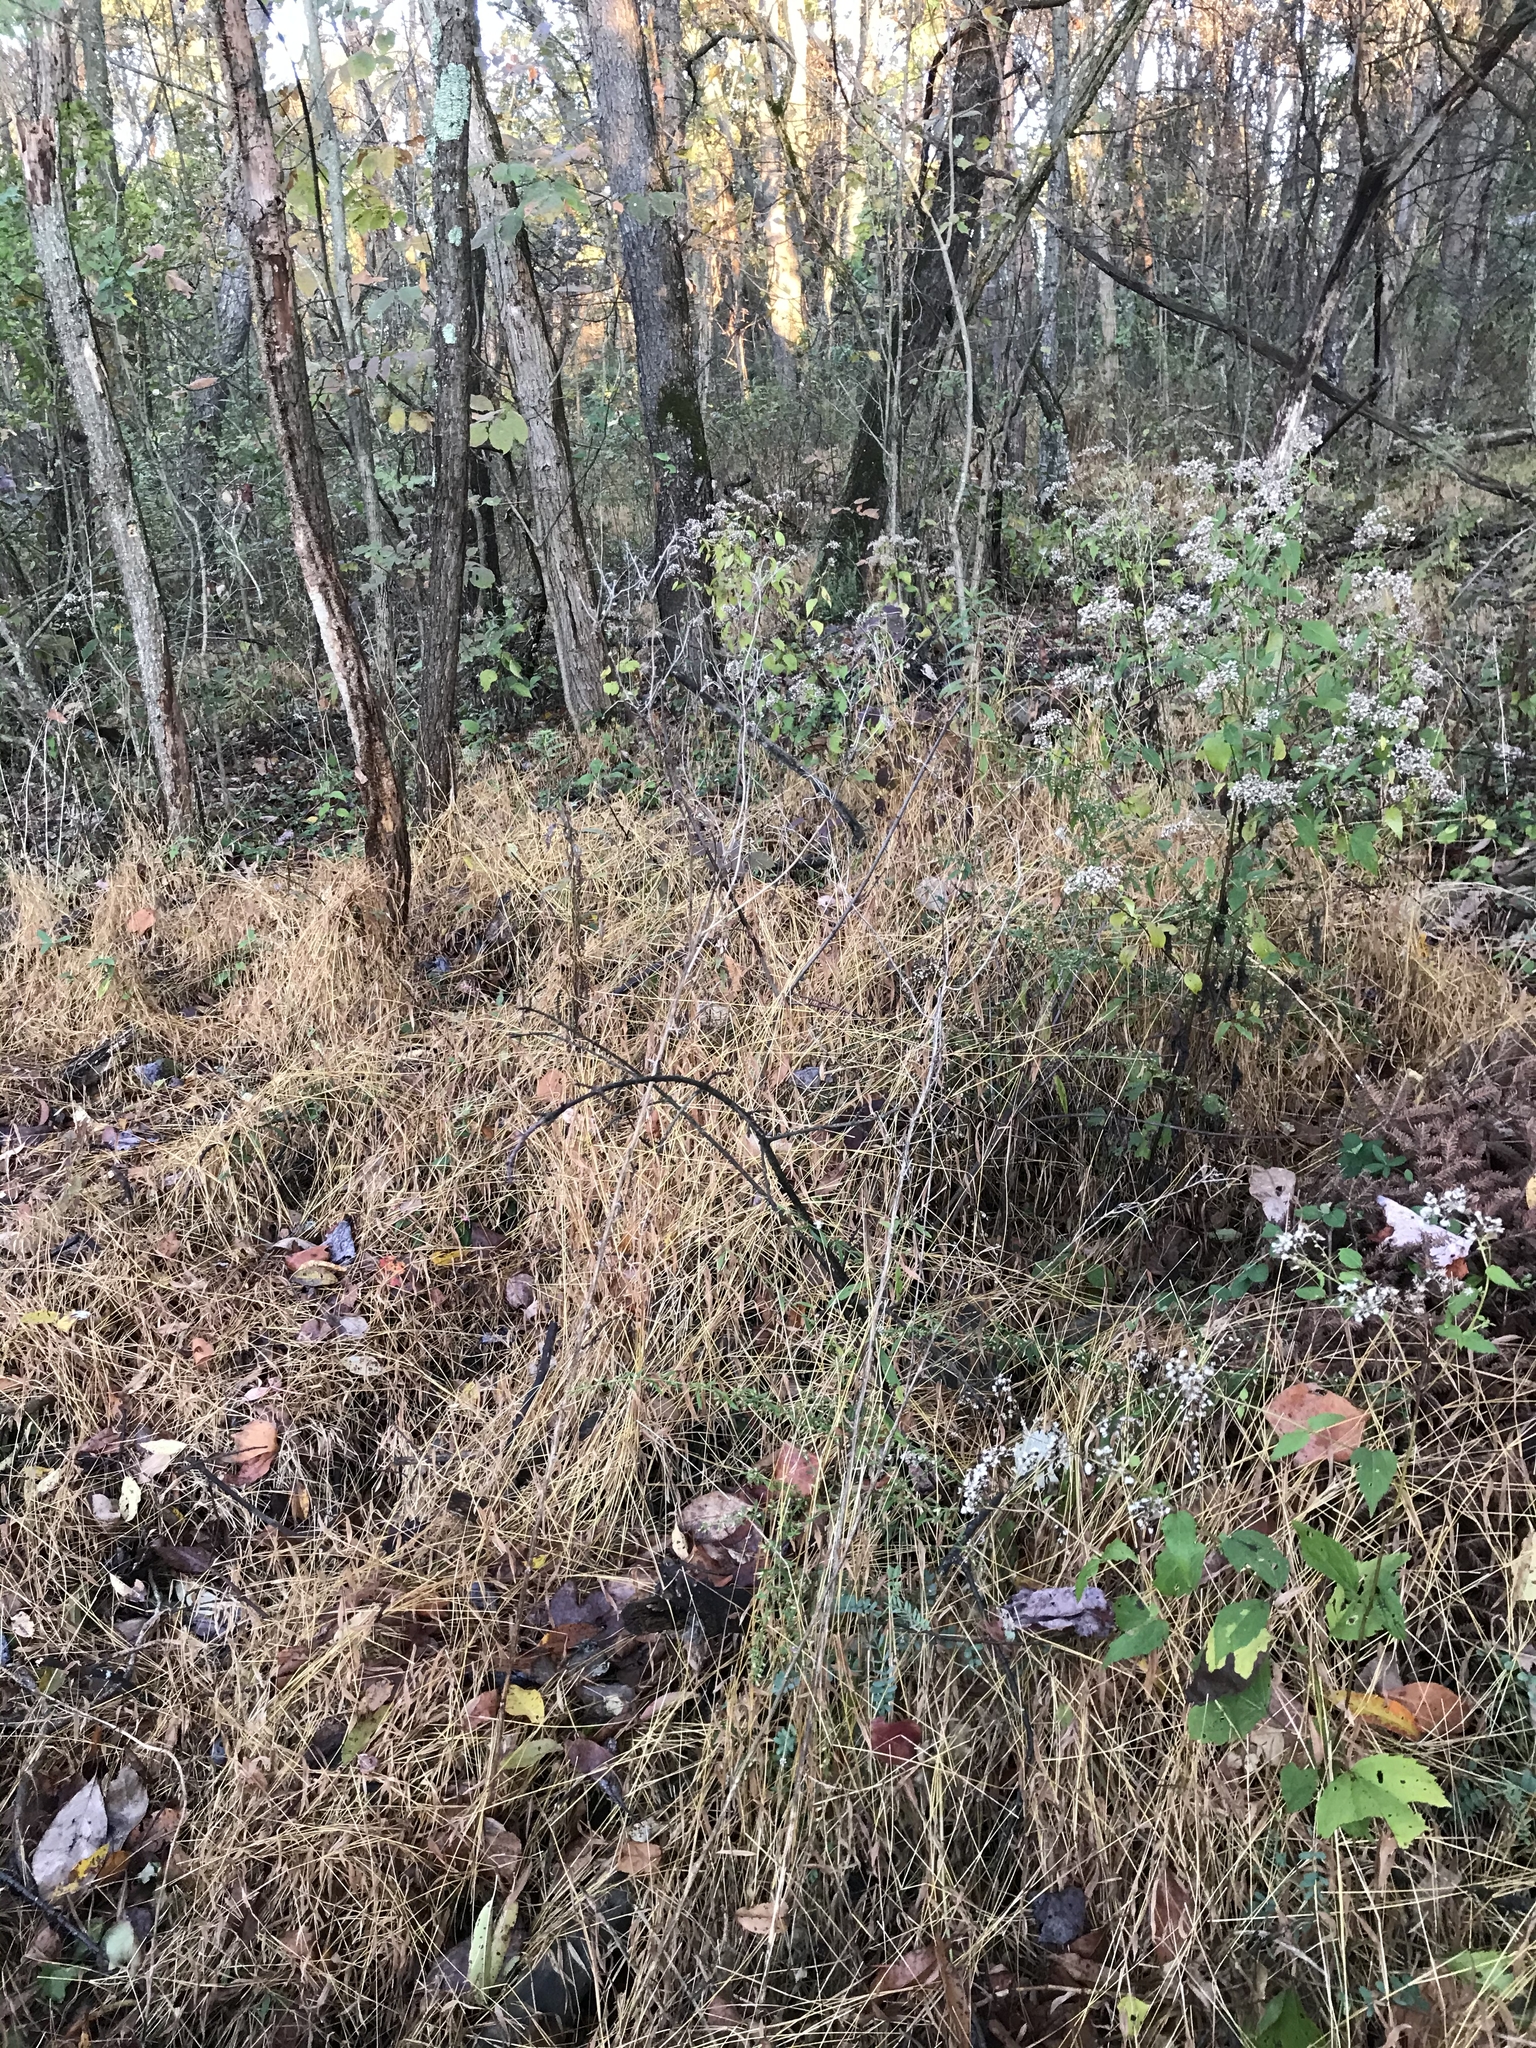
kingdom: Plantae
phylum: Tracheophyta
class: Liliopsida
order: Poales
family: Poaceae
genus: Microstegium
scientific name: Microstegium vimineum
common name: Japanese stiltgrass
